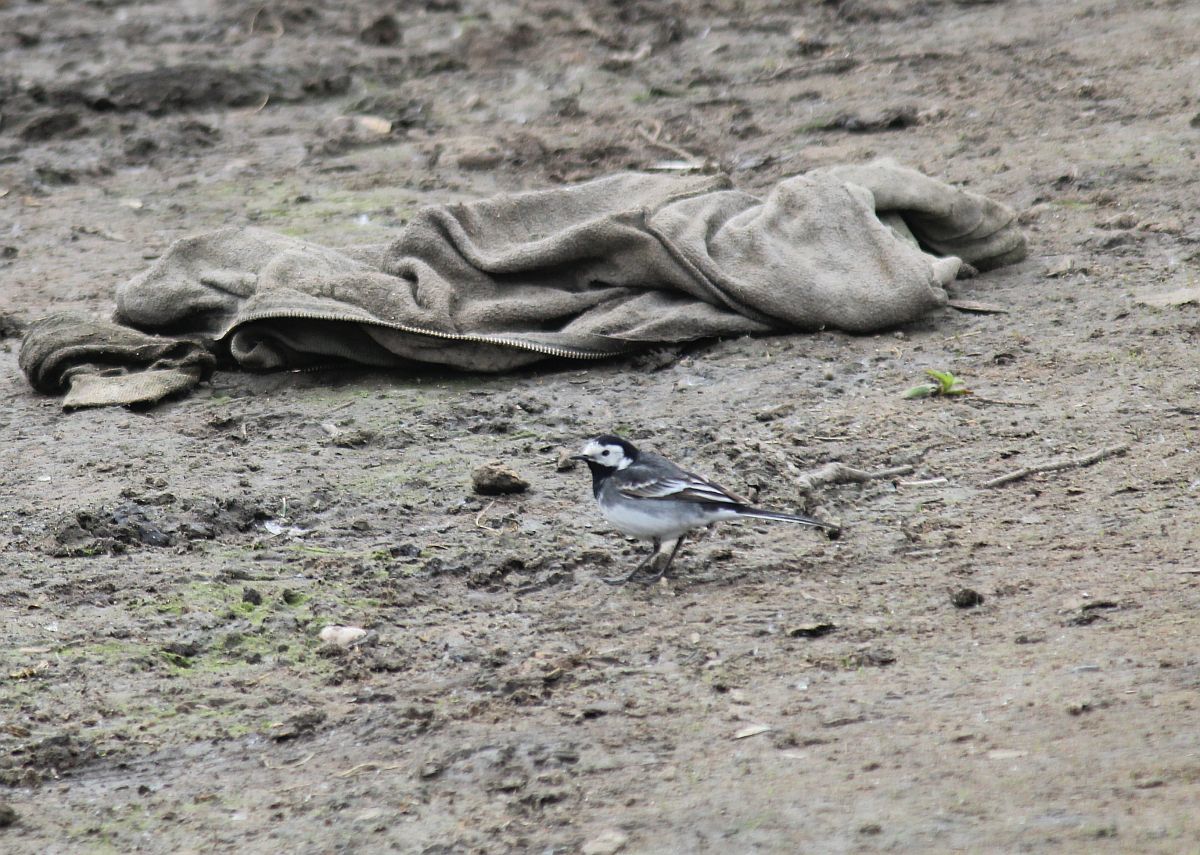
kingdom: Animalia
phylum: Chordata
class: Aves
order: Passeriformes
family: Motacillidae
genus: Motacilla
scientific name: Motacilla alba
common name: White wagtail
